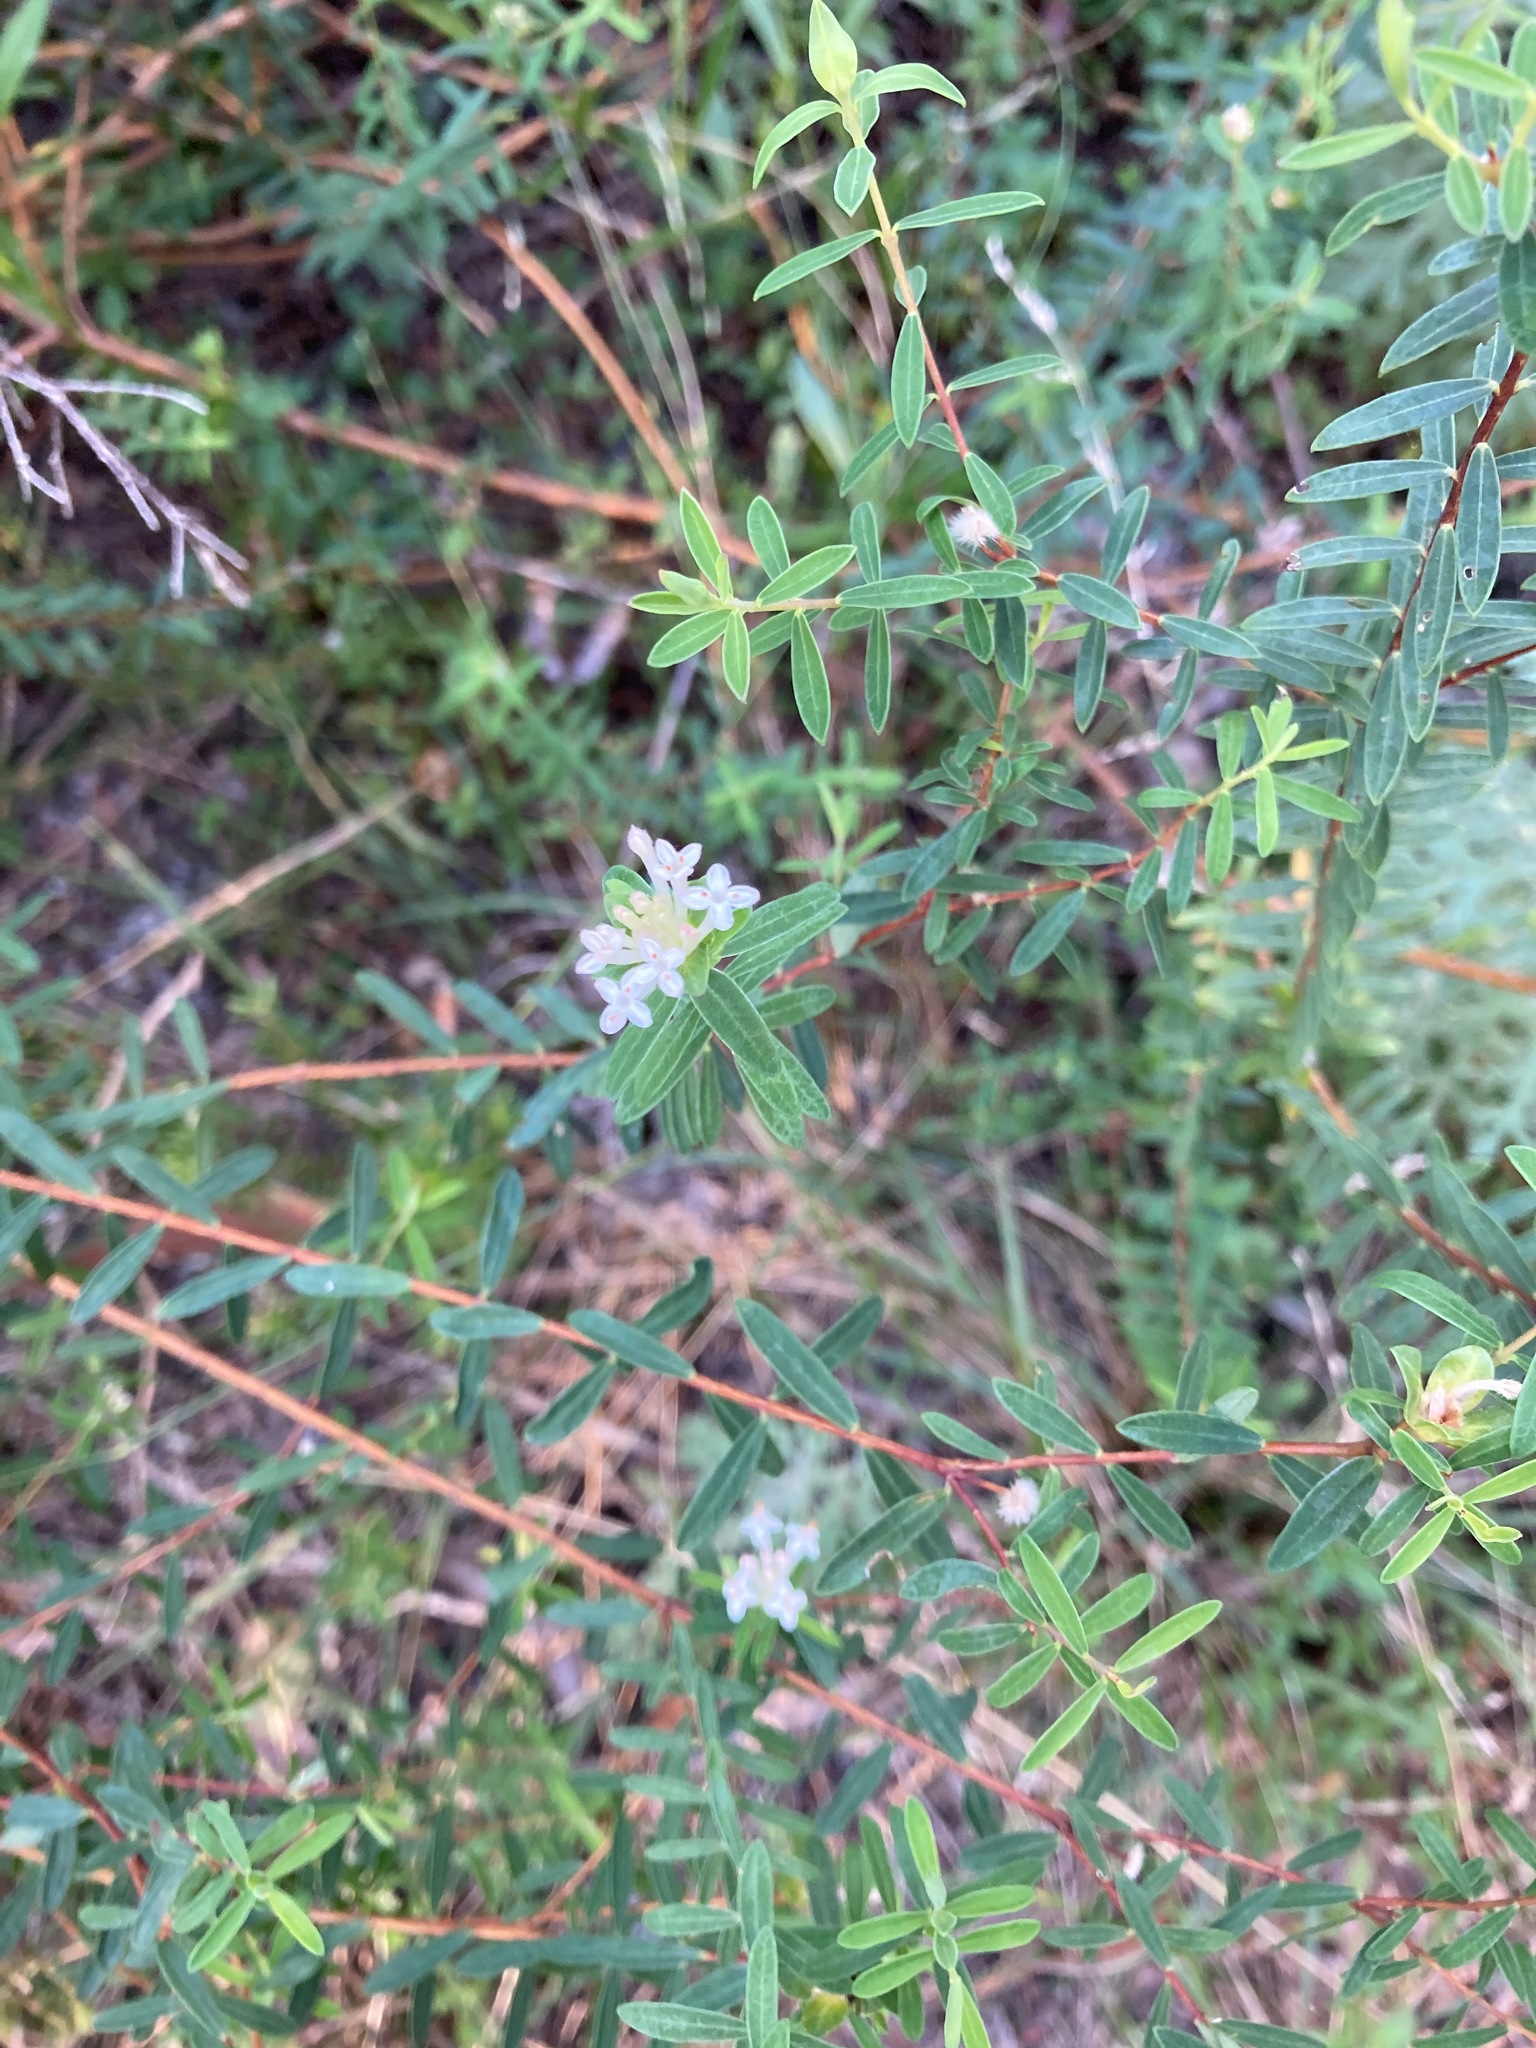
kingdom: Plantae
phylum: Tracheophyta
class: Magnoliopsida
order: Malvales
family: Thymelaeaceae
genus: Pimelea
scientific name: Pimelea linifolia
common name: Queen-of-the-bush
